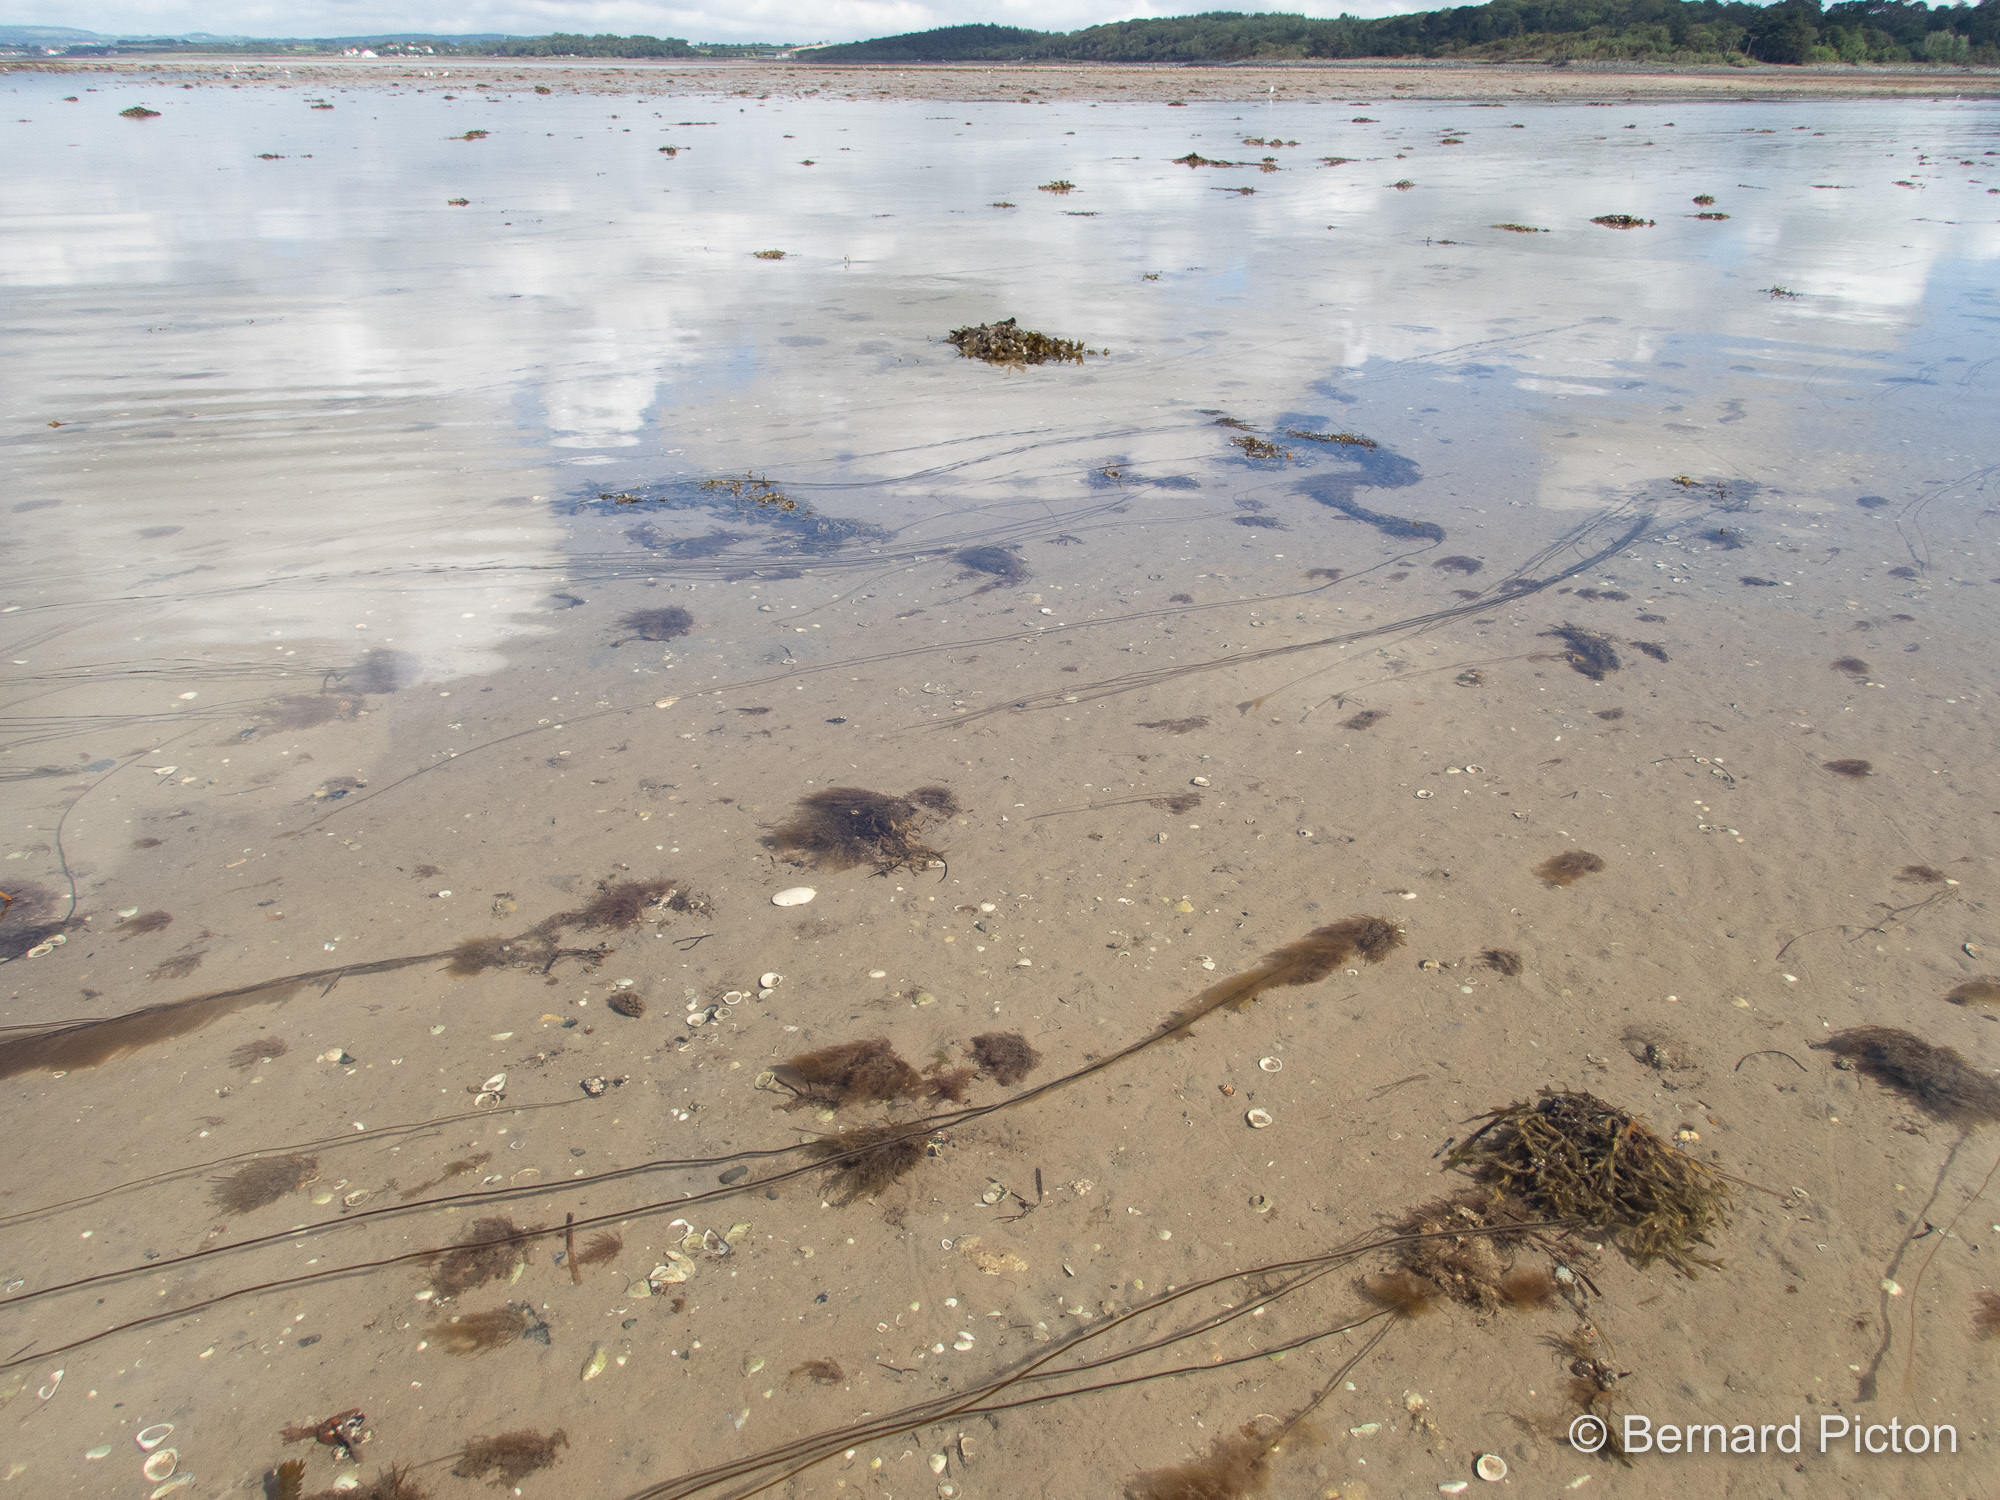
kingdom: Chromista
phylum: Ochrophyta
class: Phaeophyceae
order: Laminariales
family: Chordaceae
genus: Chorda
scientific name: Chorda filum
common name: Mermaid's tresses
